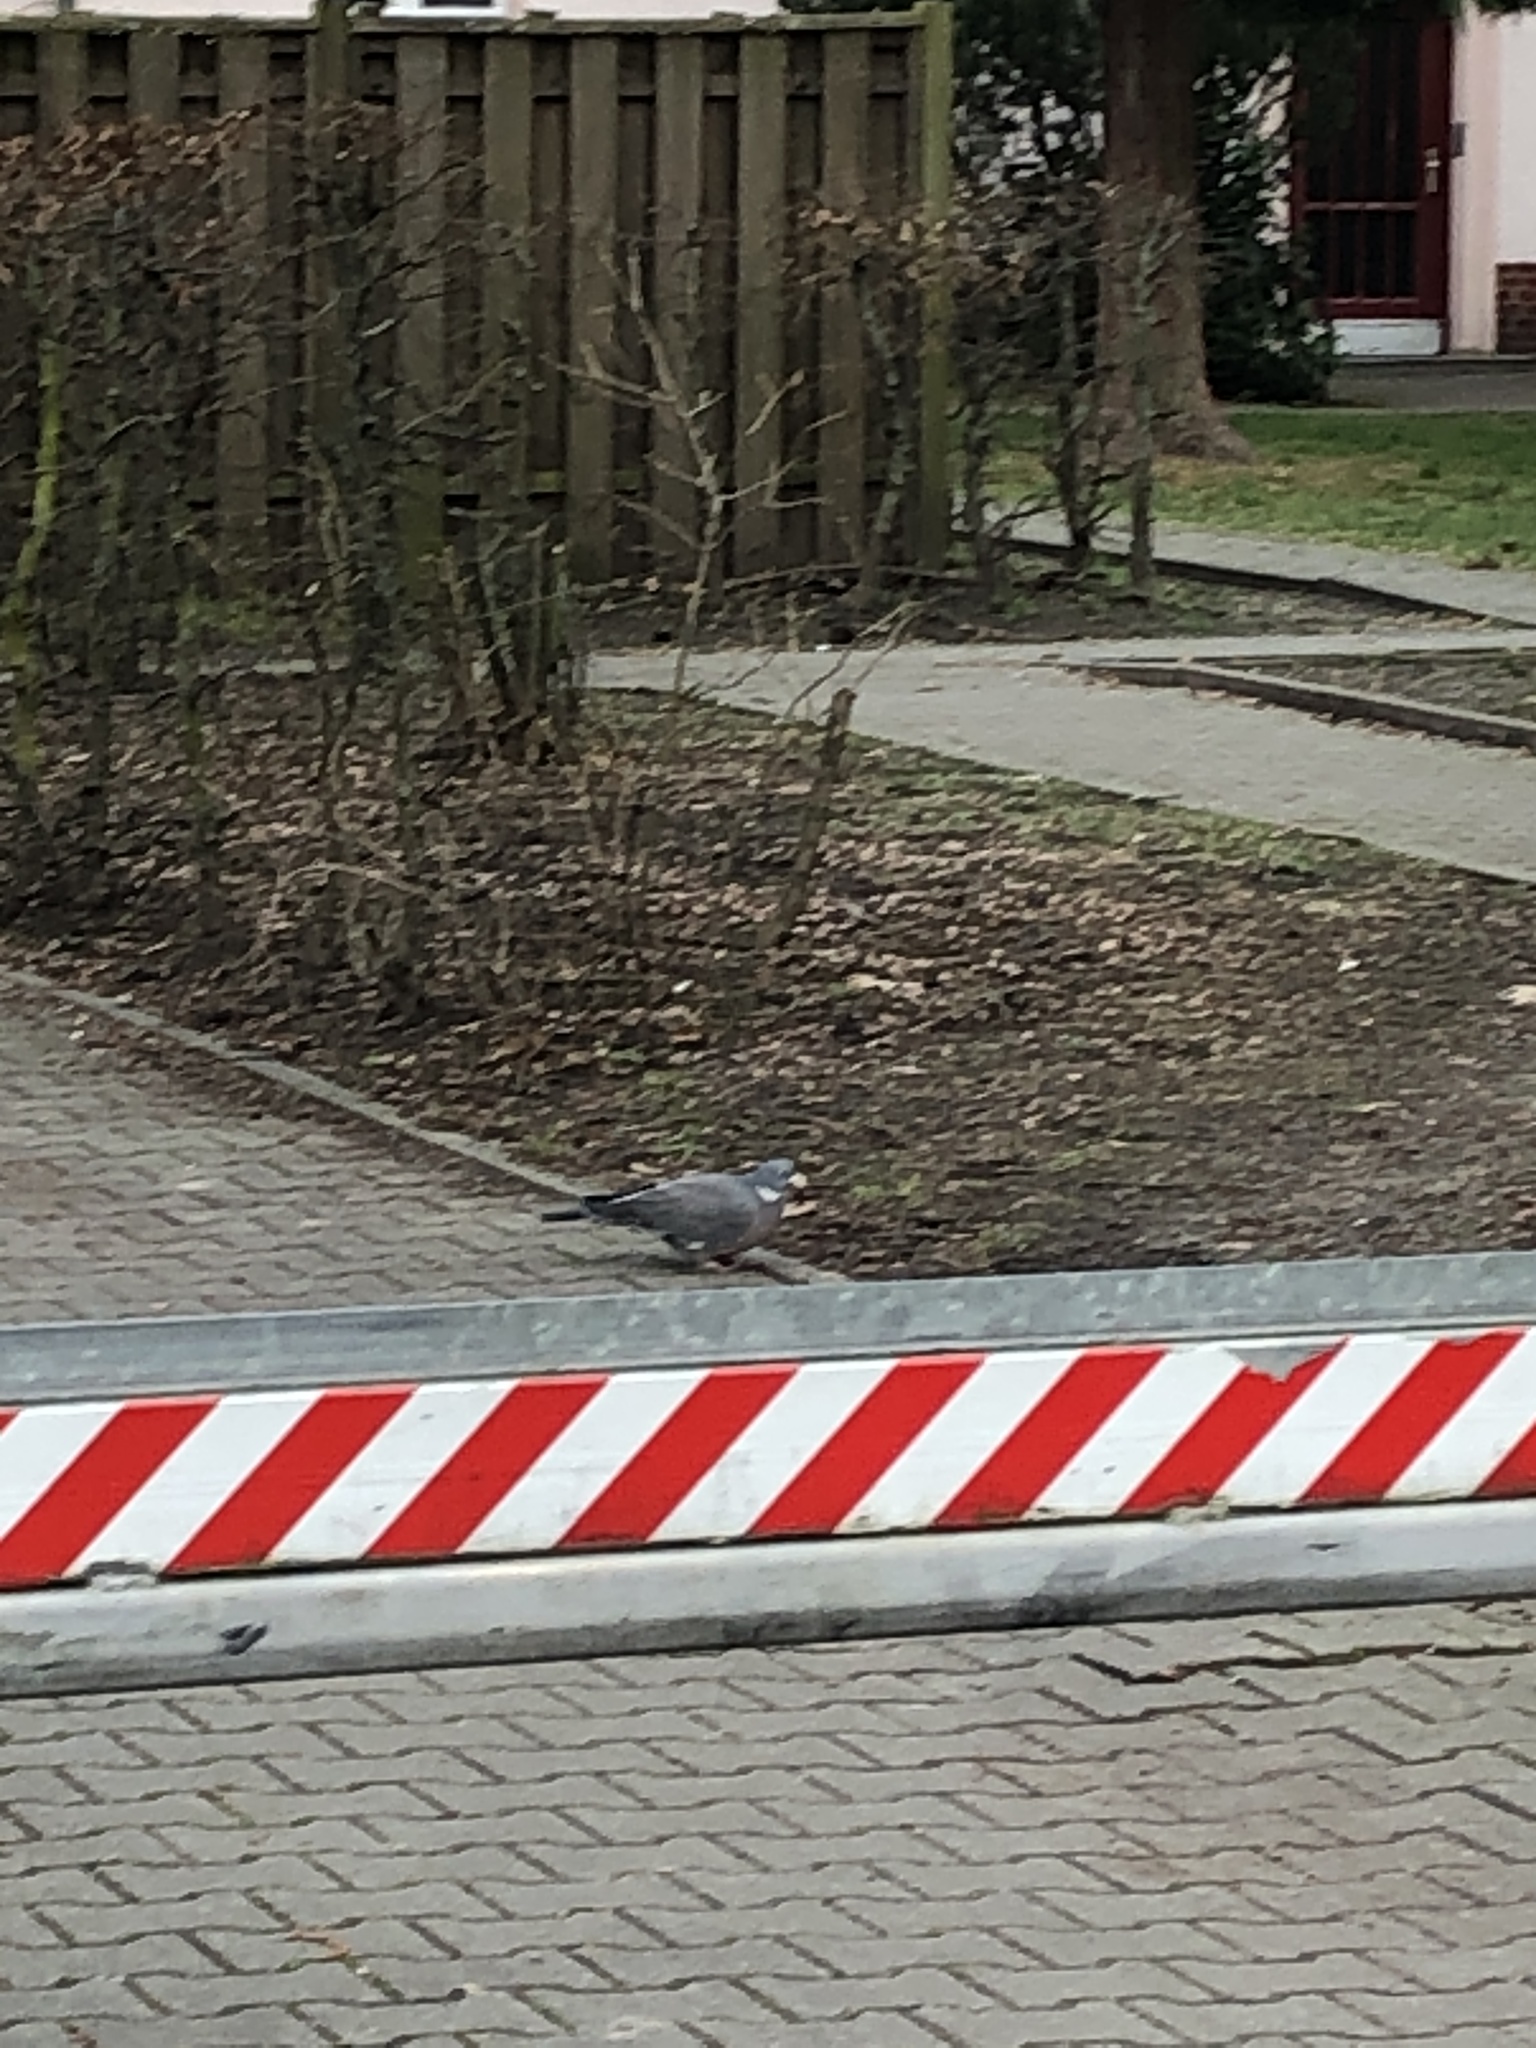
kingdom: Animalia
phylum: Chordata
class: Aves
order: Columbiformes
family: Columbidae
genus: Columba
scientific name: Columba palumbus
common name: Common wood pigeon
